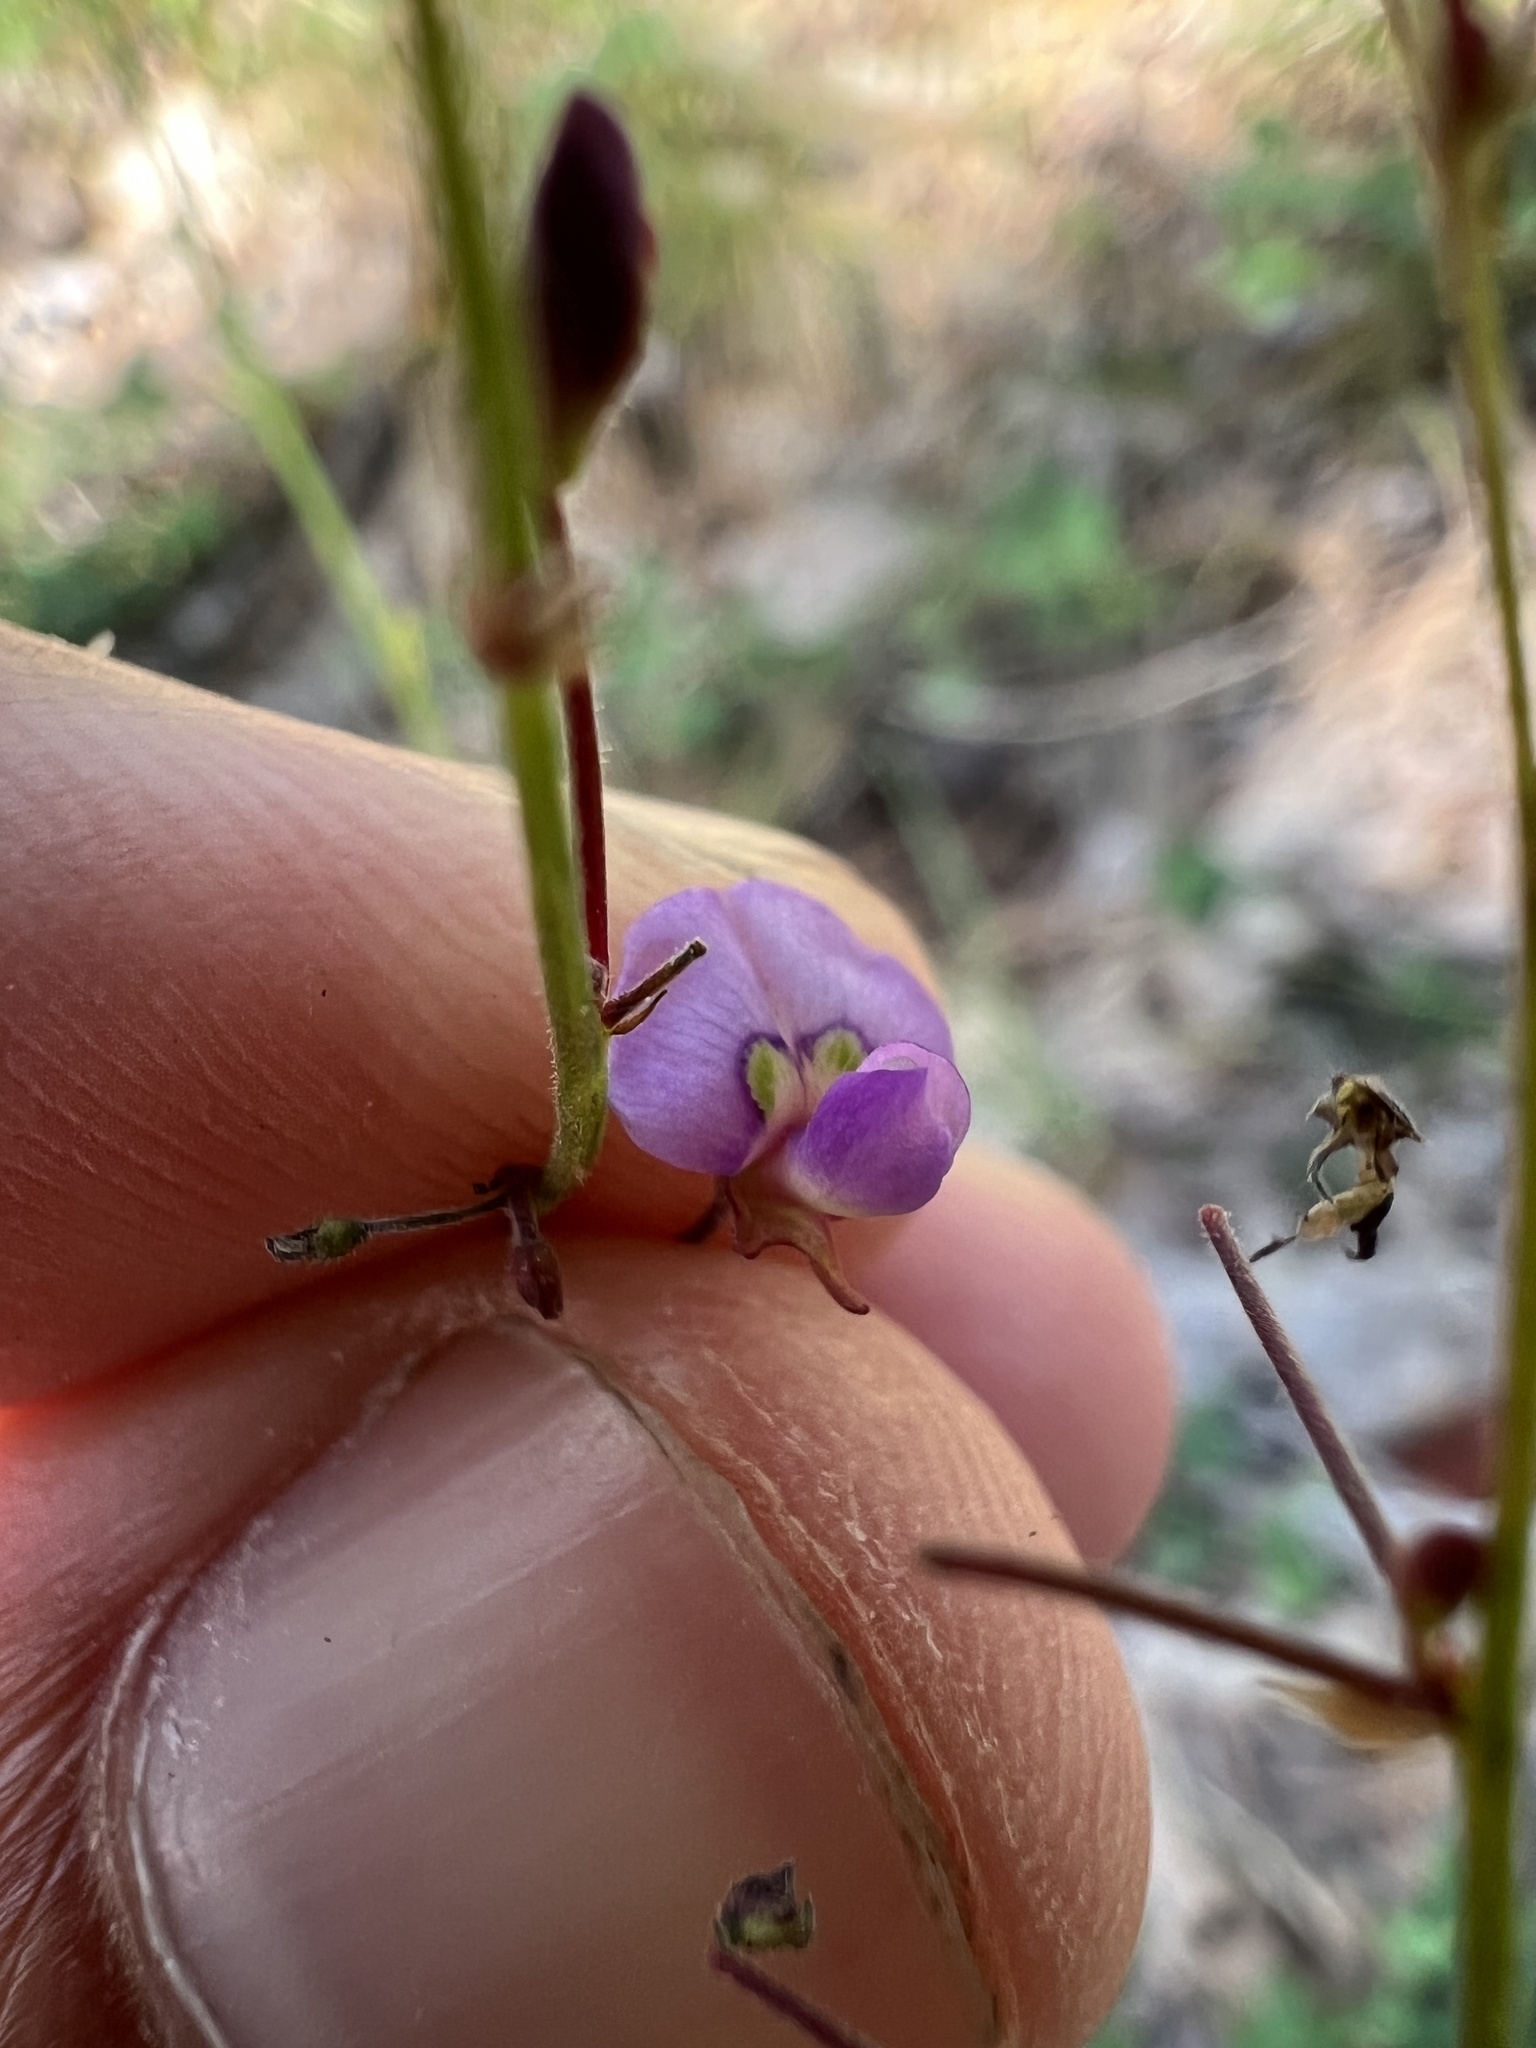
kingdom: Plantae
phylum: Tracheophyta
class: Magnoliopsida
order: Fabales
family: Fabaceae
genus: Desmodium
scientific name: Desmodium marilandicum
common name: Maryland tick-trefoil
